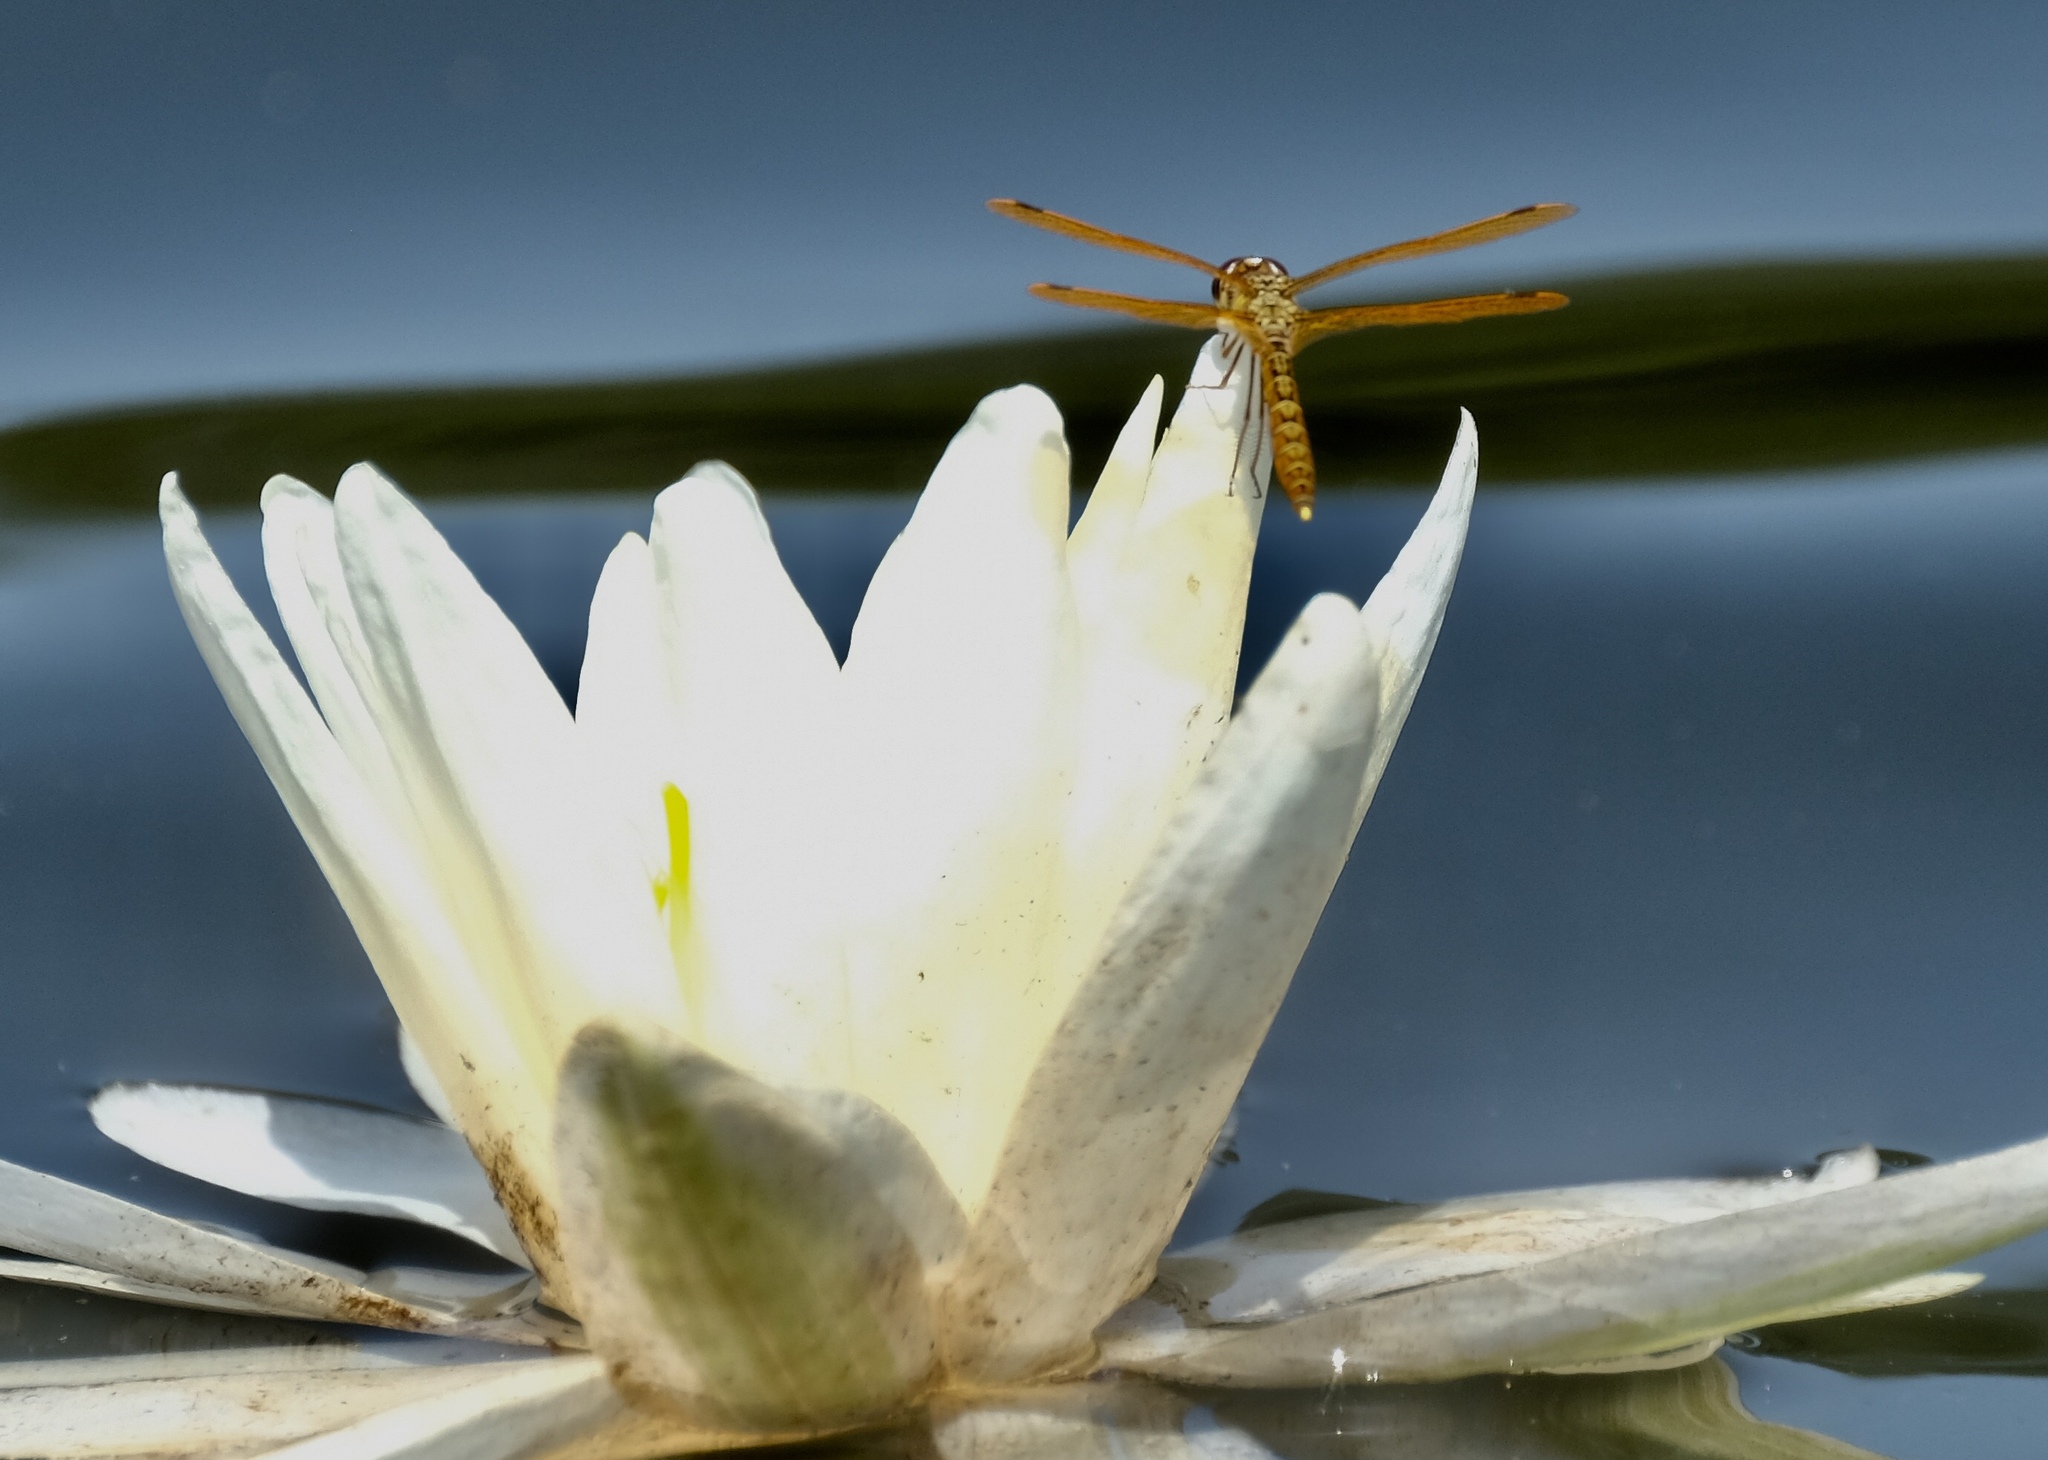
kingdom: Animalia
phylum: Arthropoda
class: Insecta
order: Odonata
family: Libellulidae
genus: Perithemis
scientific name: Perithemis tenera
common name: Eastern amberwing
